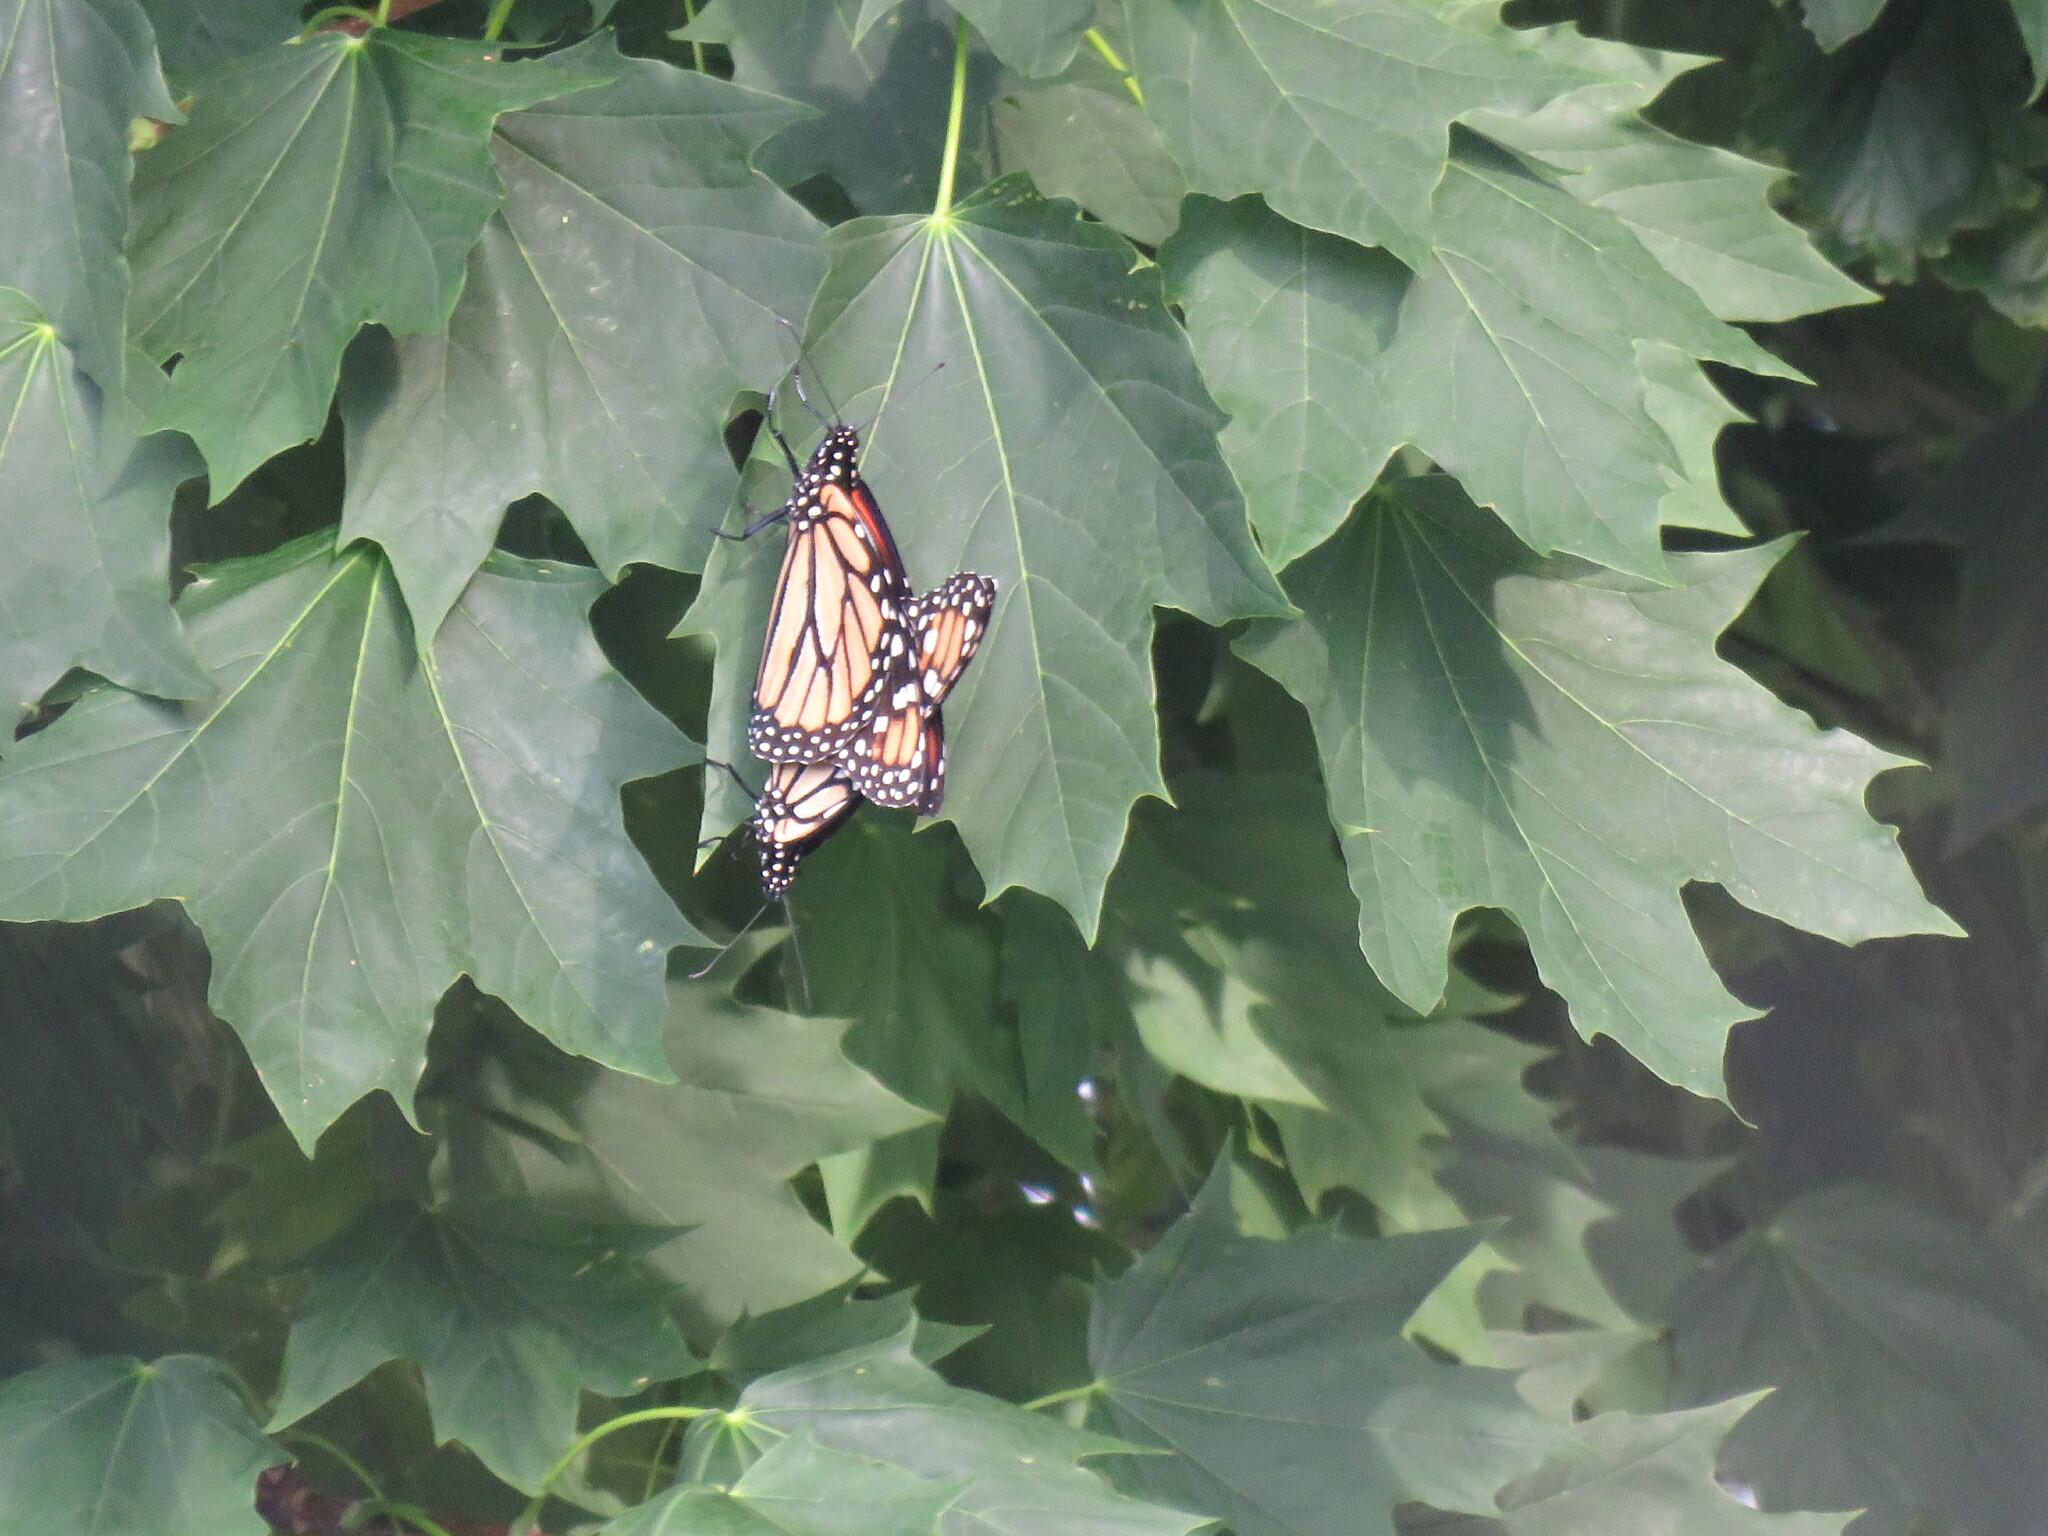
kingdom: Animalia
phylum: Arthropoda
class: Insecta
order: Lepidoptera
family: Nymphalidae
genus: Danaus
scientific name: Danaus plexippus
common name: Monarch
